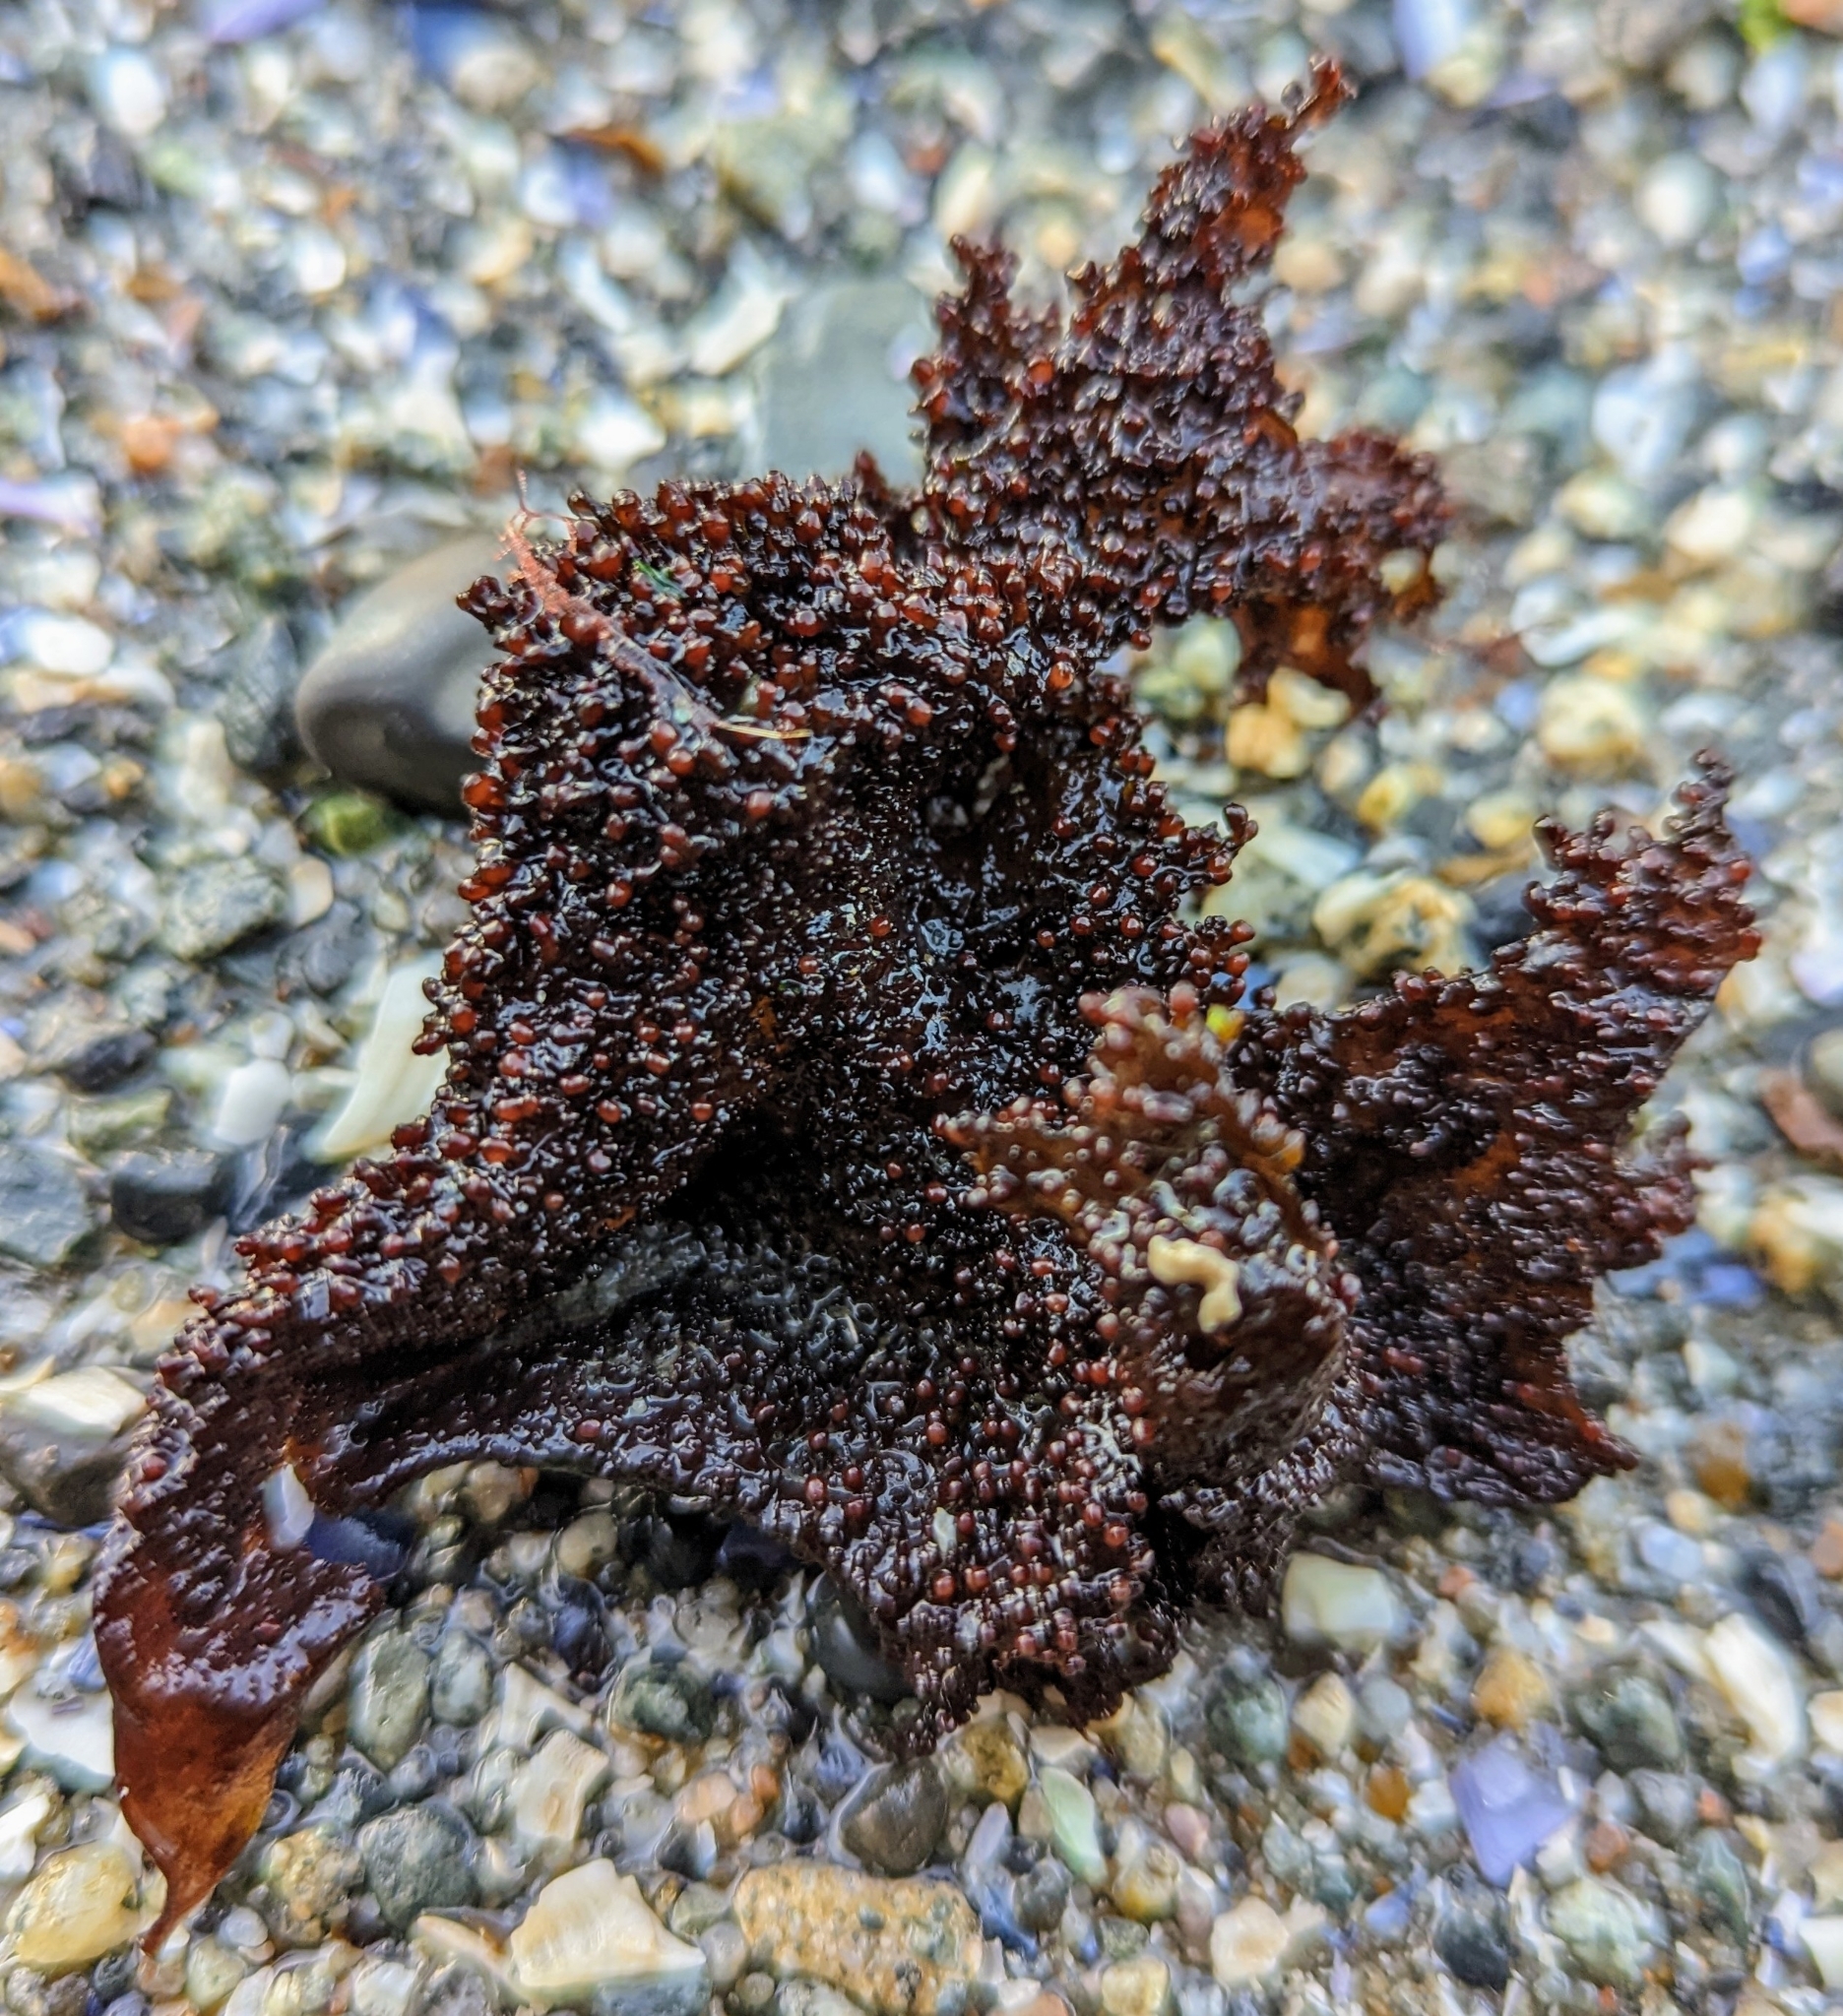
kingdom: Plantae
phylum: Rhodophyta
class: Florideophyceae
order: Gigartinales
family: Phyllophoraceae
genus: Mastocarpus
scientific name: Mastocarpus papillatus
